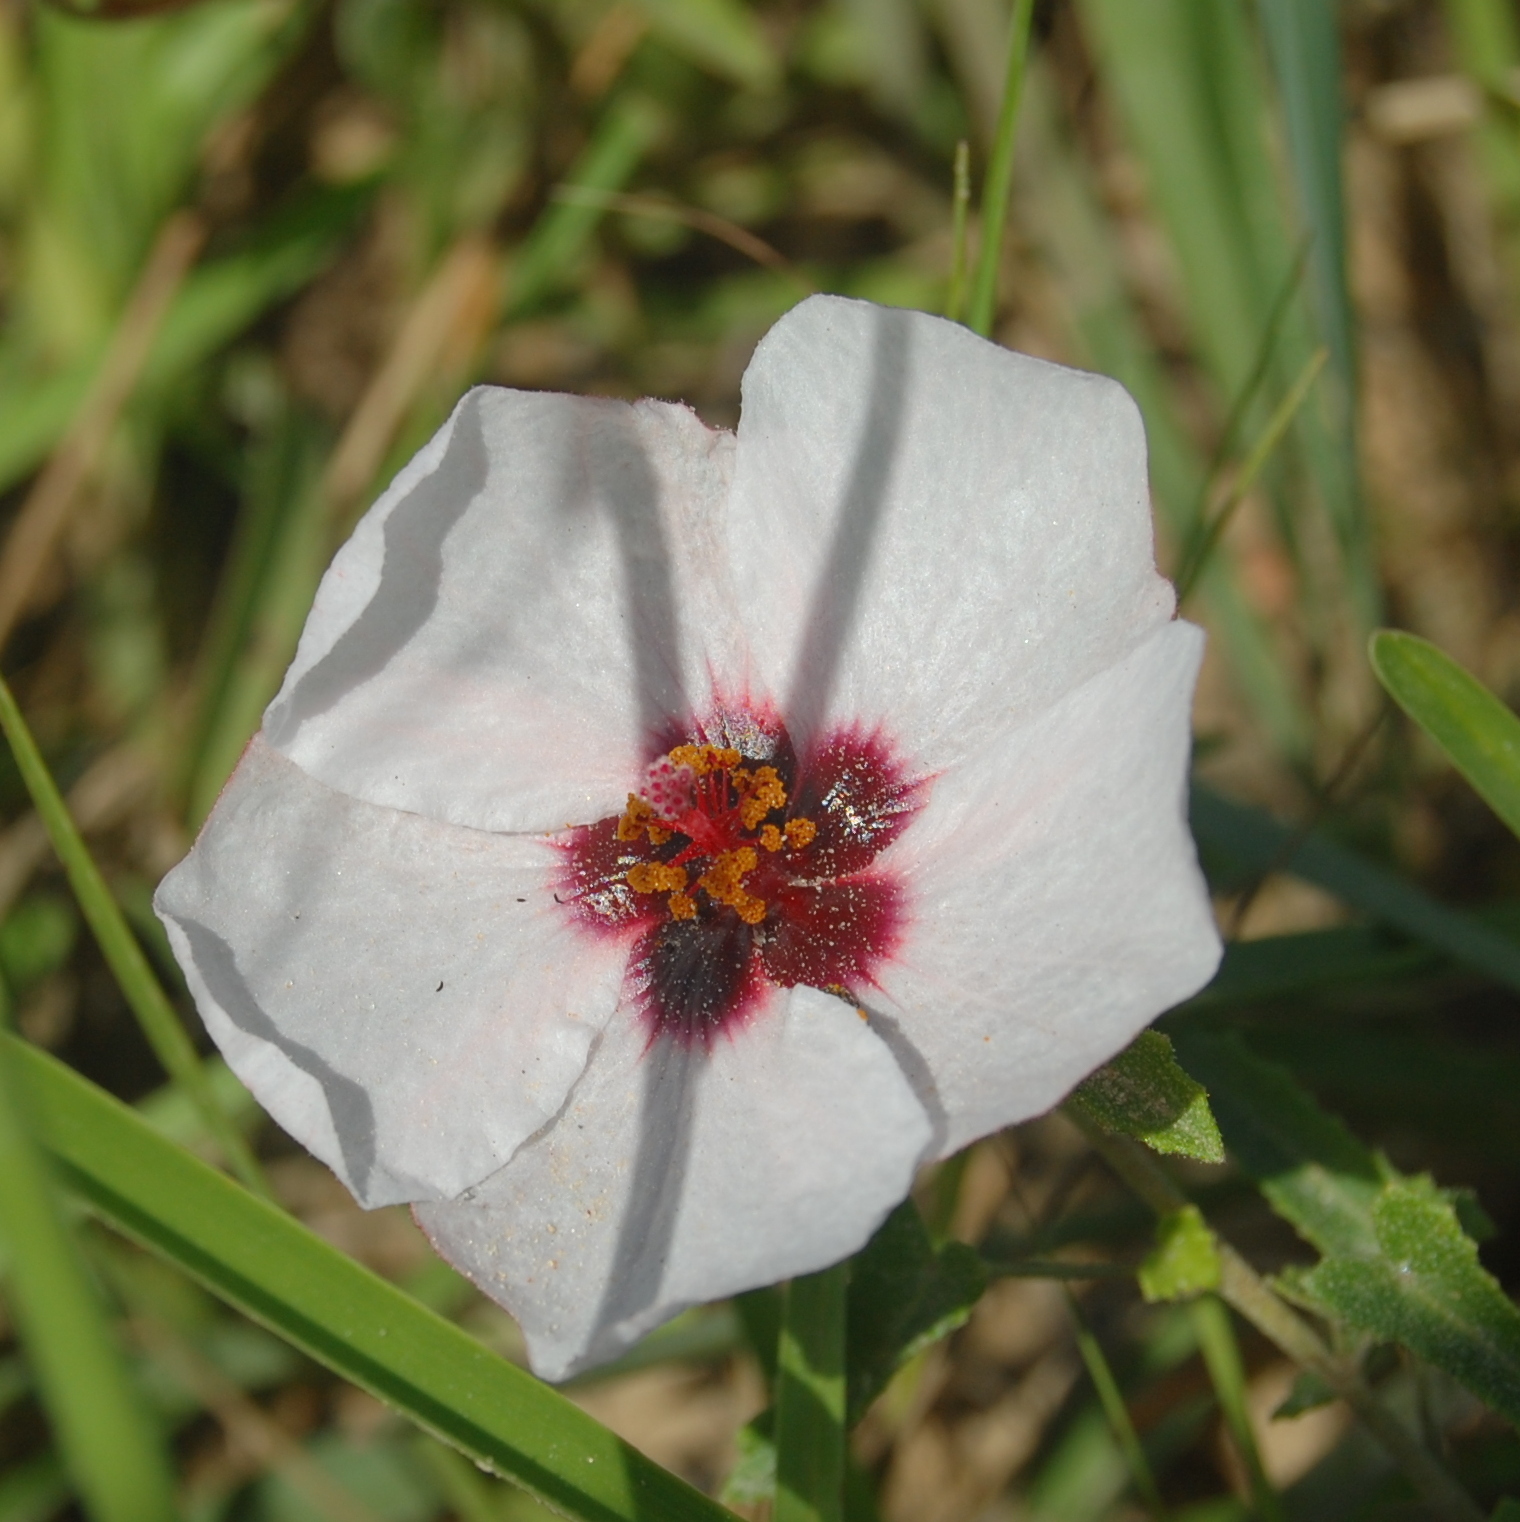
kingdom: Plantae
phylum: Tracheophyta
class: Magnoliopsida
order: Malvales
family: Malvaceae
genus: Pavonia
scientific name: Pavonia hastata
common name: Spearleaf swampmallow
